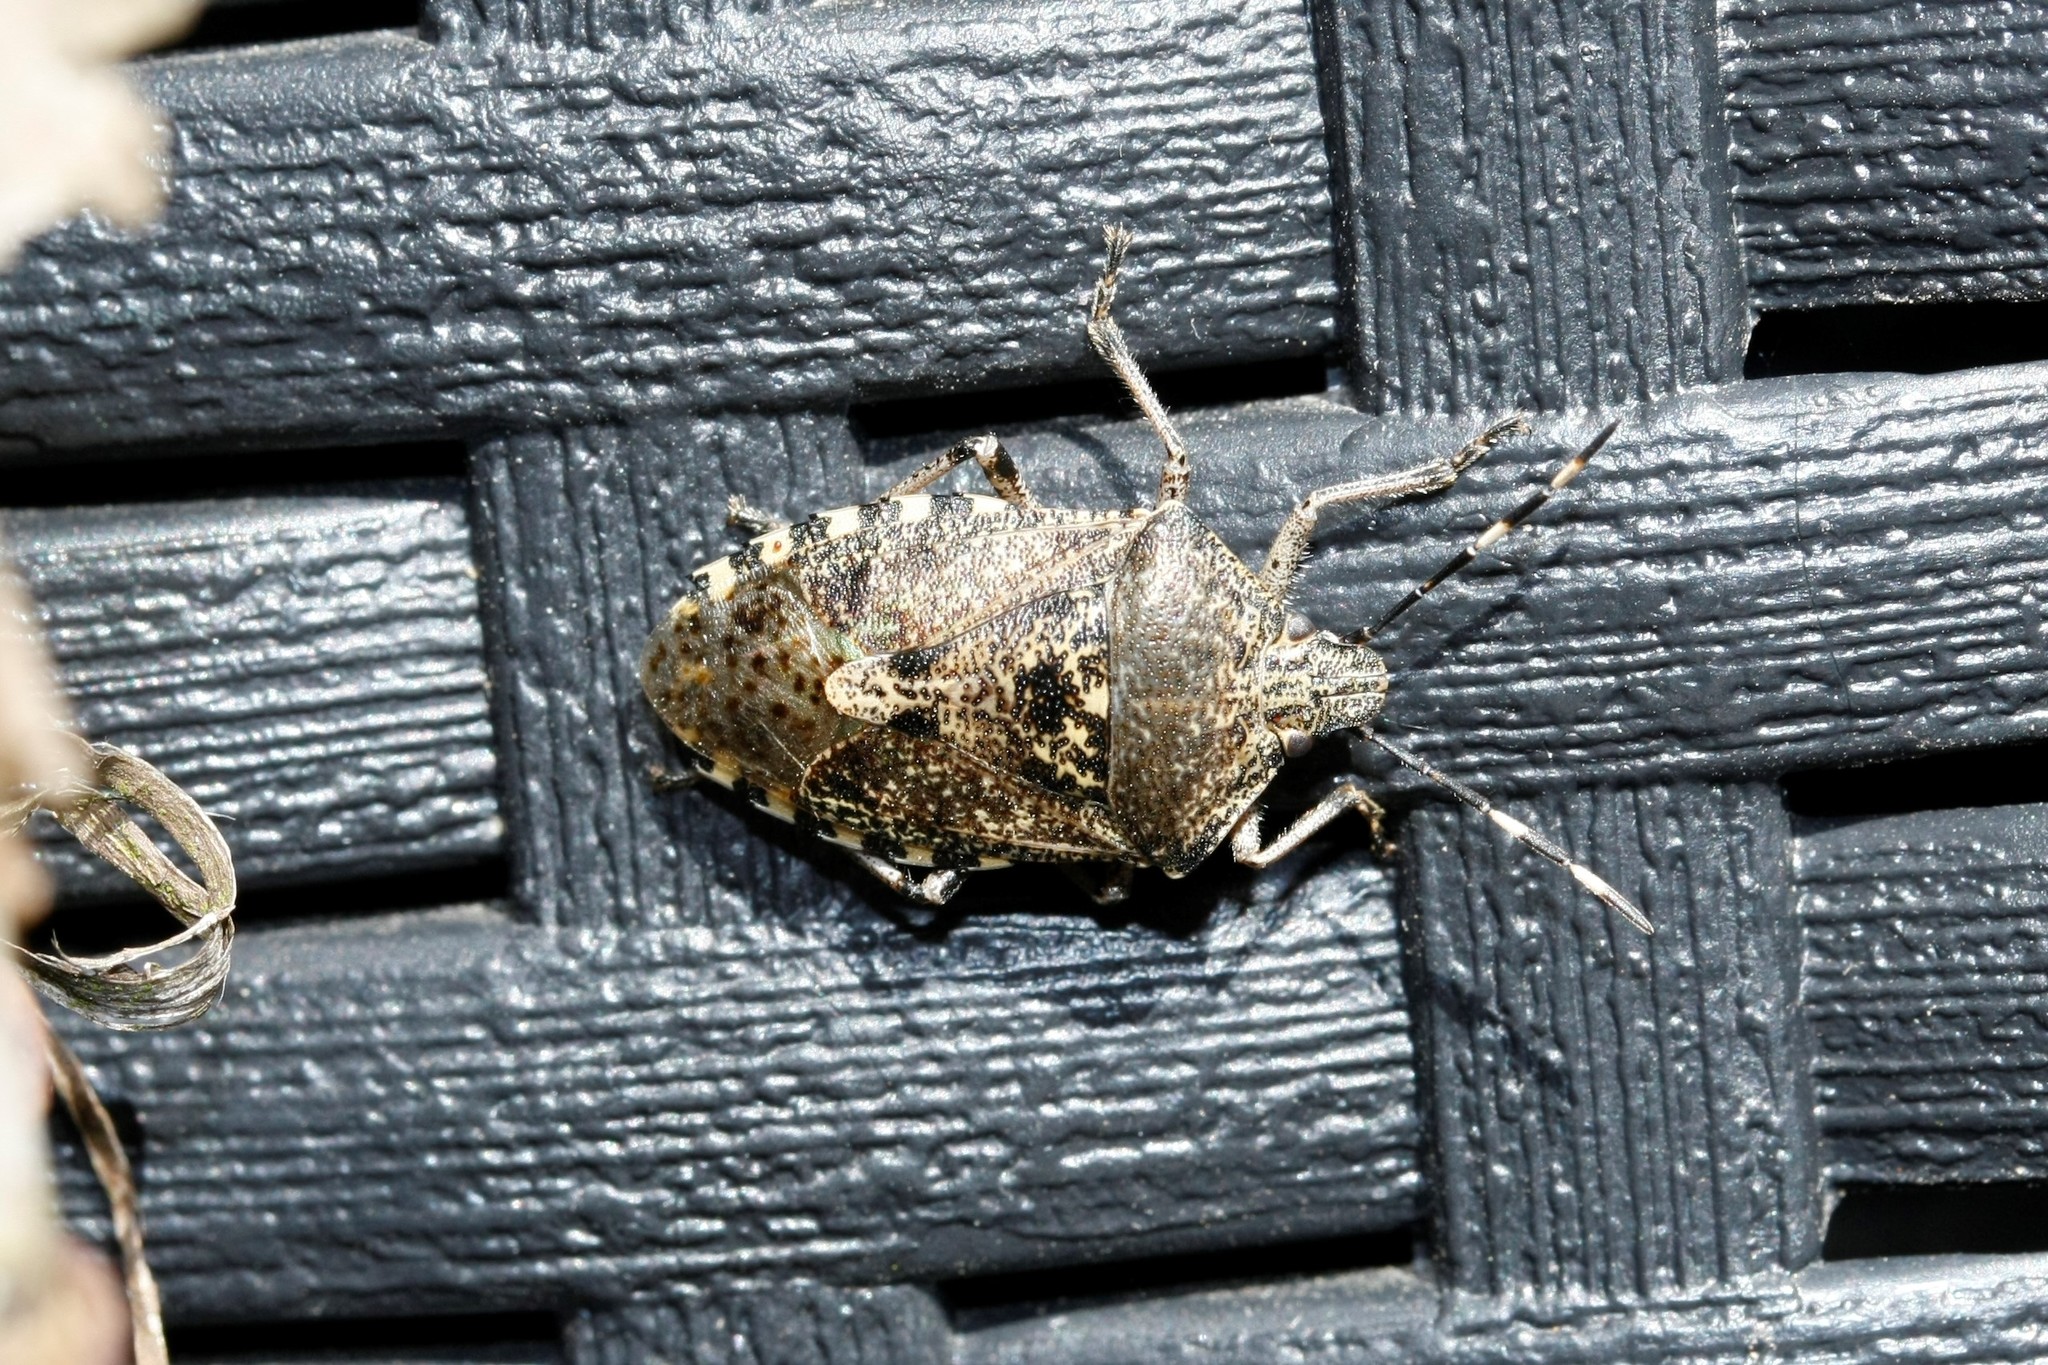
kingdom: Animalia
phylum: Arthropoda
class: Insecta
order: Hemiptera
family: Pentatomidae
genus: Rhaphigaster
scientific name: Rhaphigaster nebulosa
